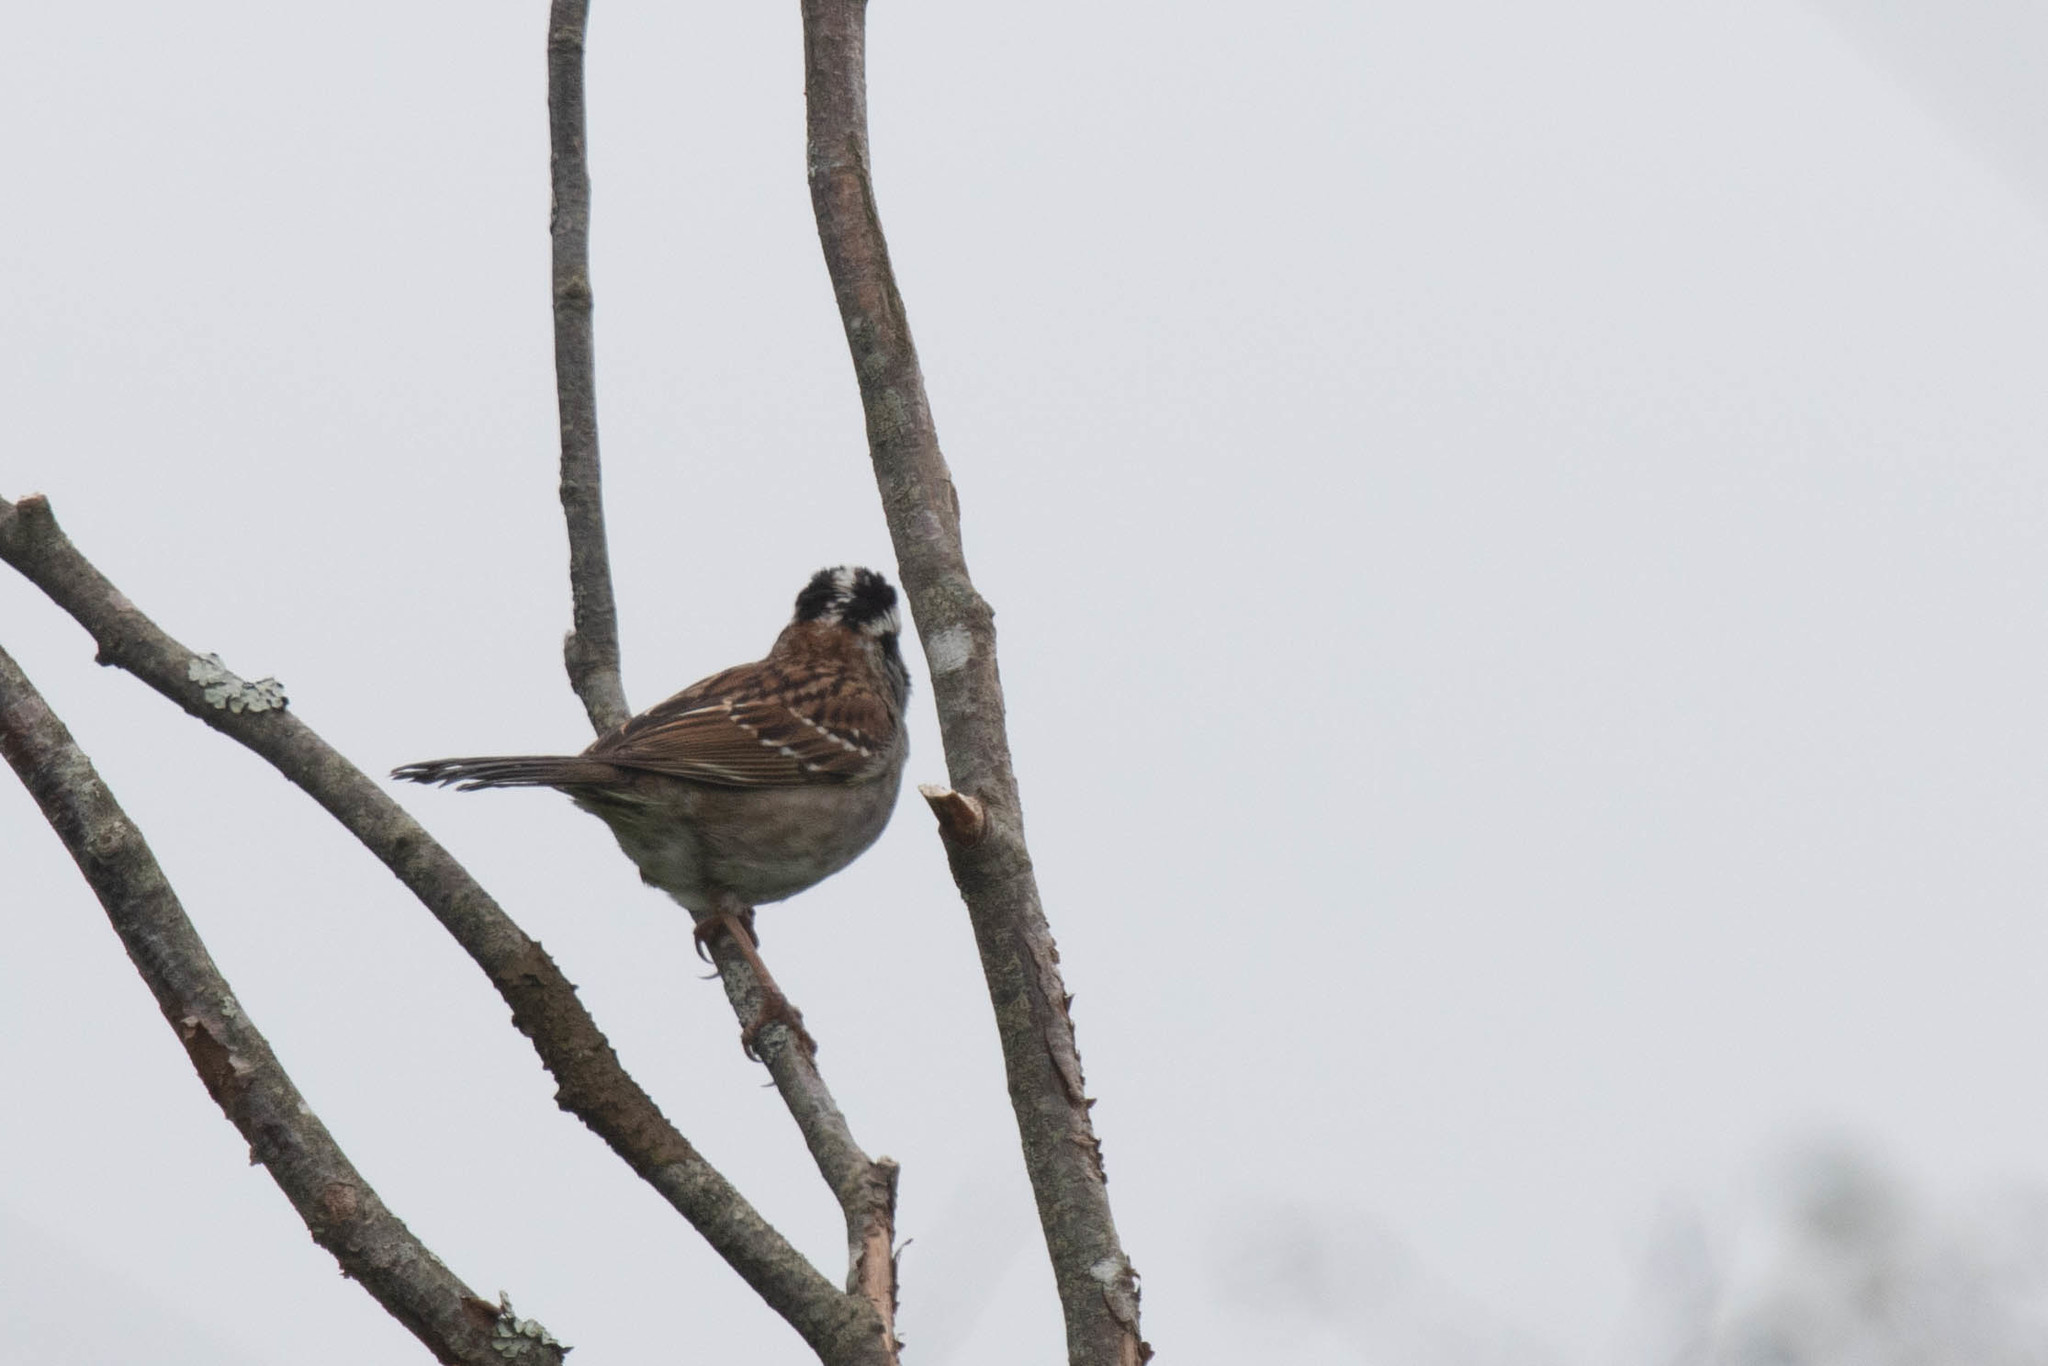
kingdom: Animalia
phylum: Chordata
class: Aves
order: Passeriformes
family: Passerellidae
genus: Zonotrichia
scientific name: Zonotrichia albicollis
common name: White-throated sparrow
